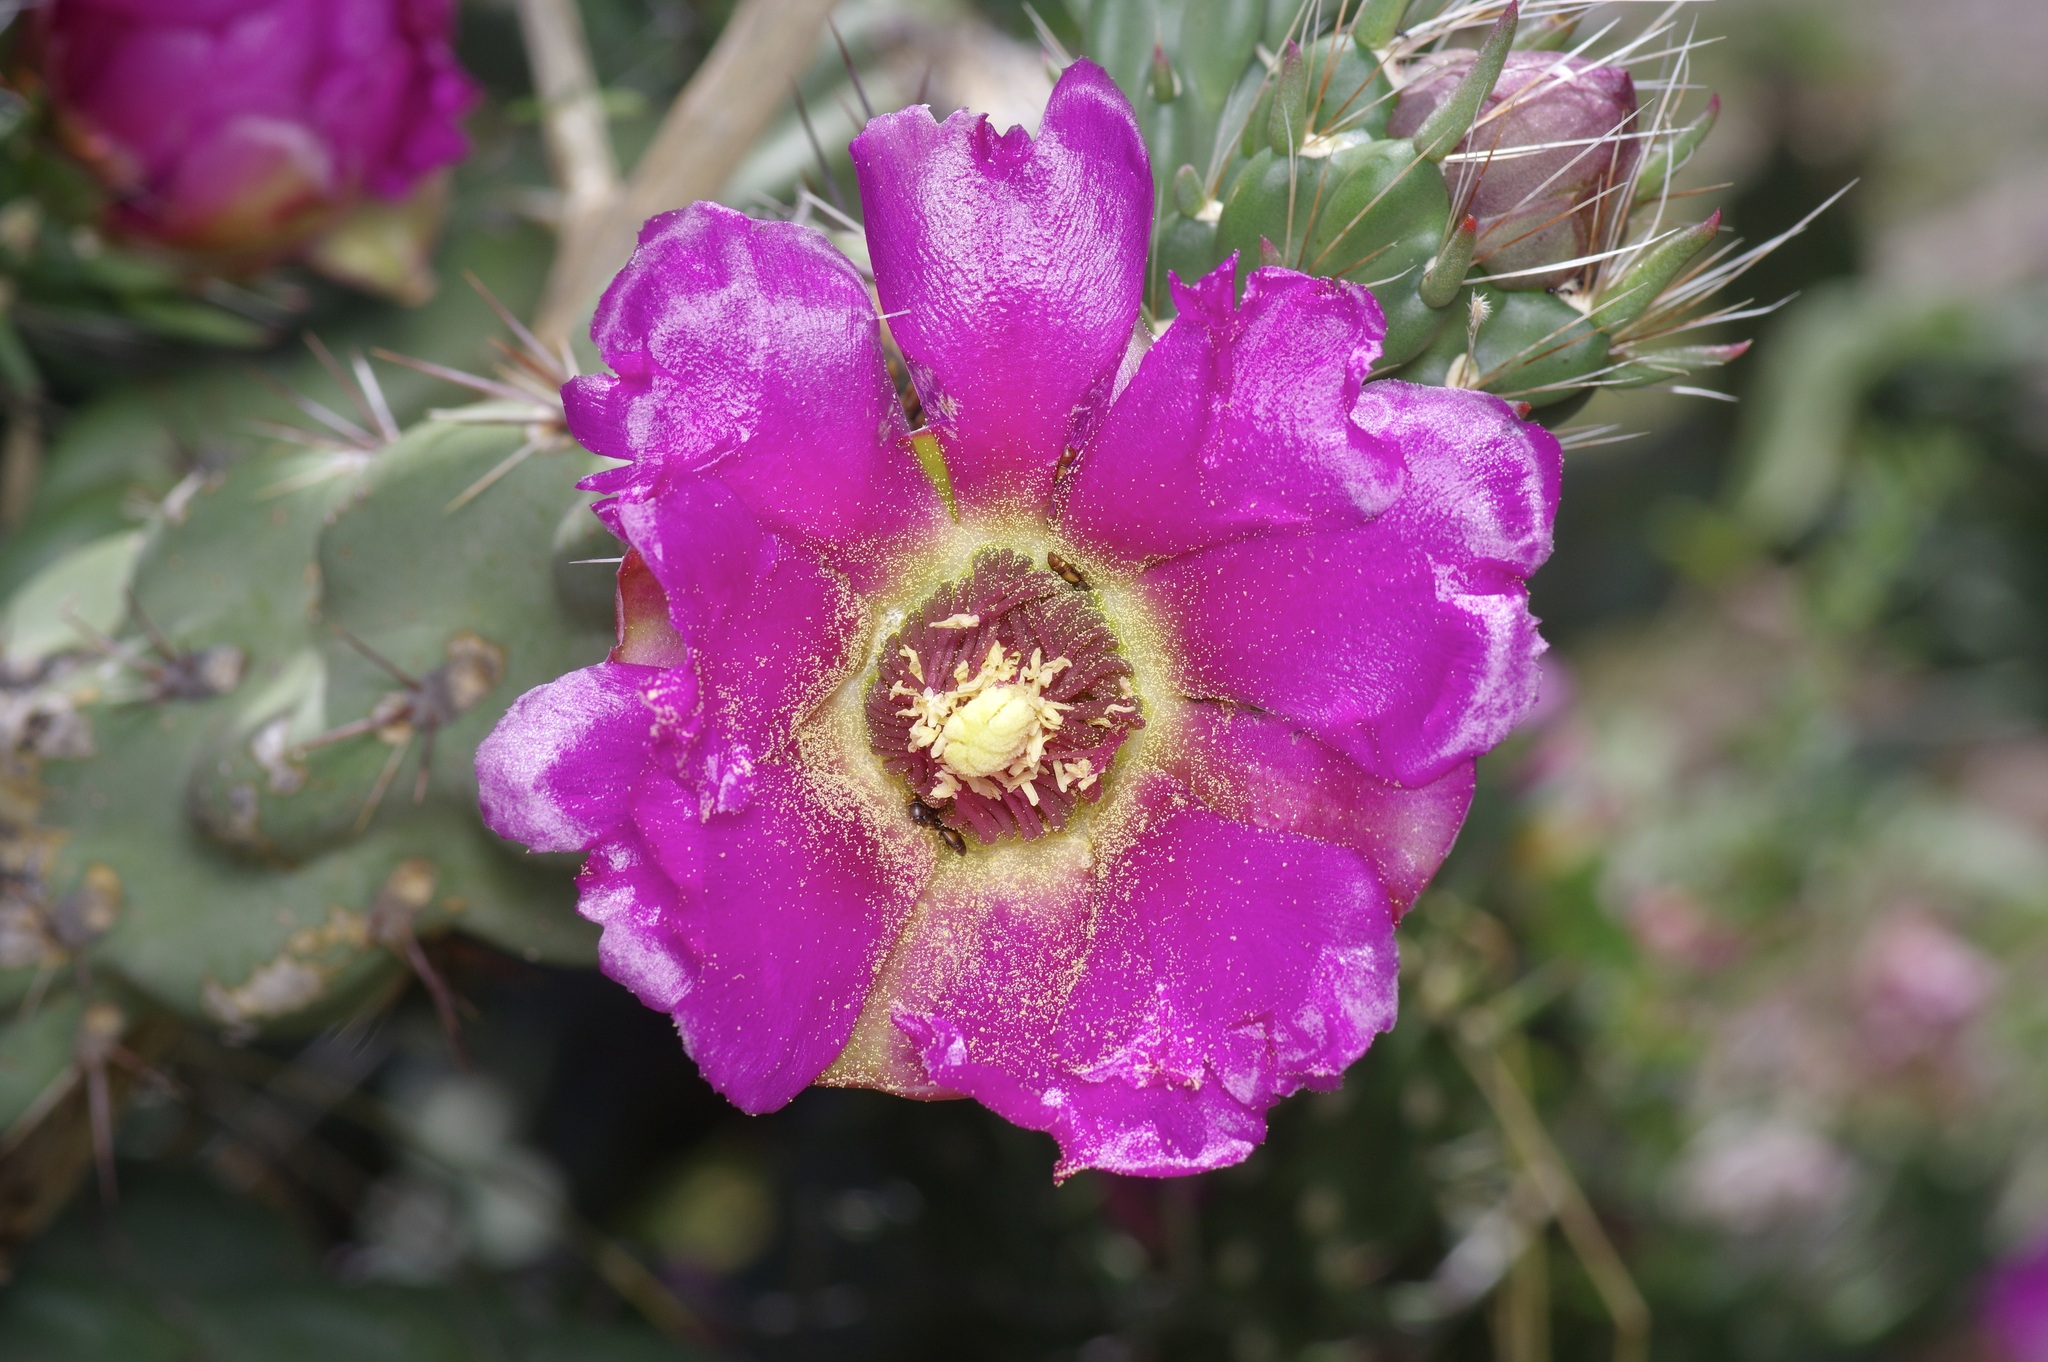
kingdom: Plantae
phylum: Tracheophyta
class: Magnoliopsida
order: Caryophyllales
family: Cactaceae
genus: Cylindropuntia
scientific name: Cylindropuntia imbricata
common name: Candelabrum cactus
